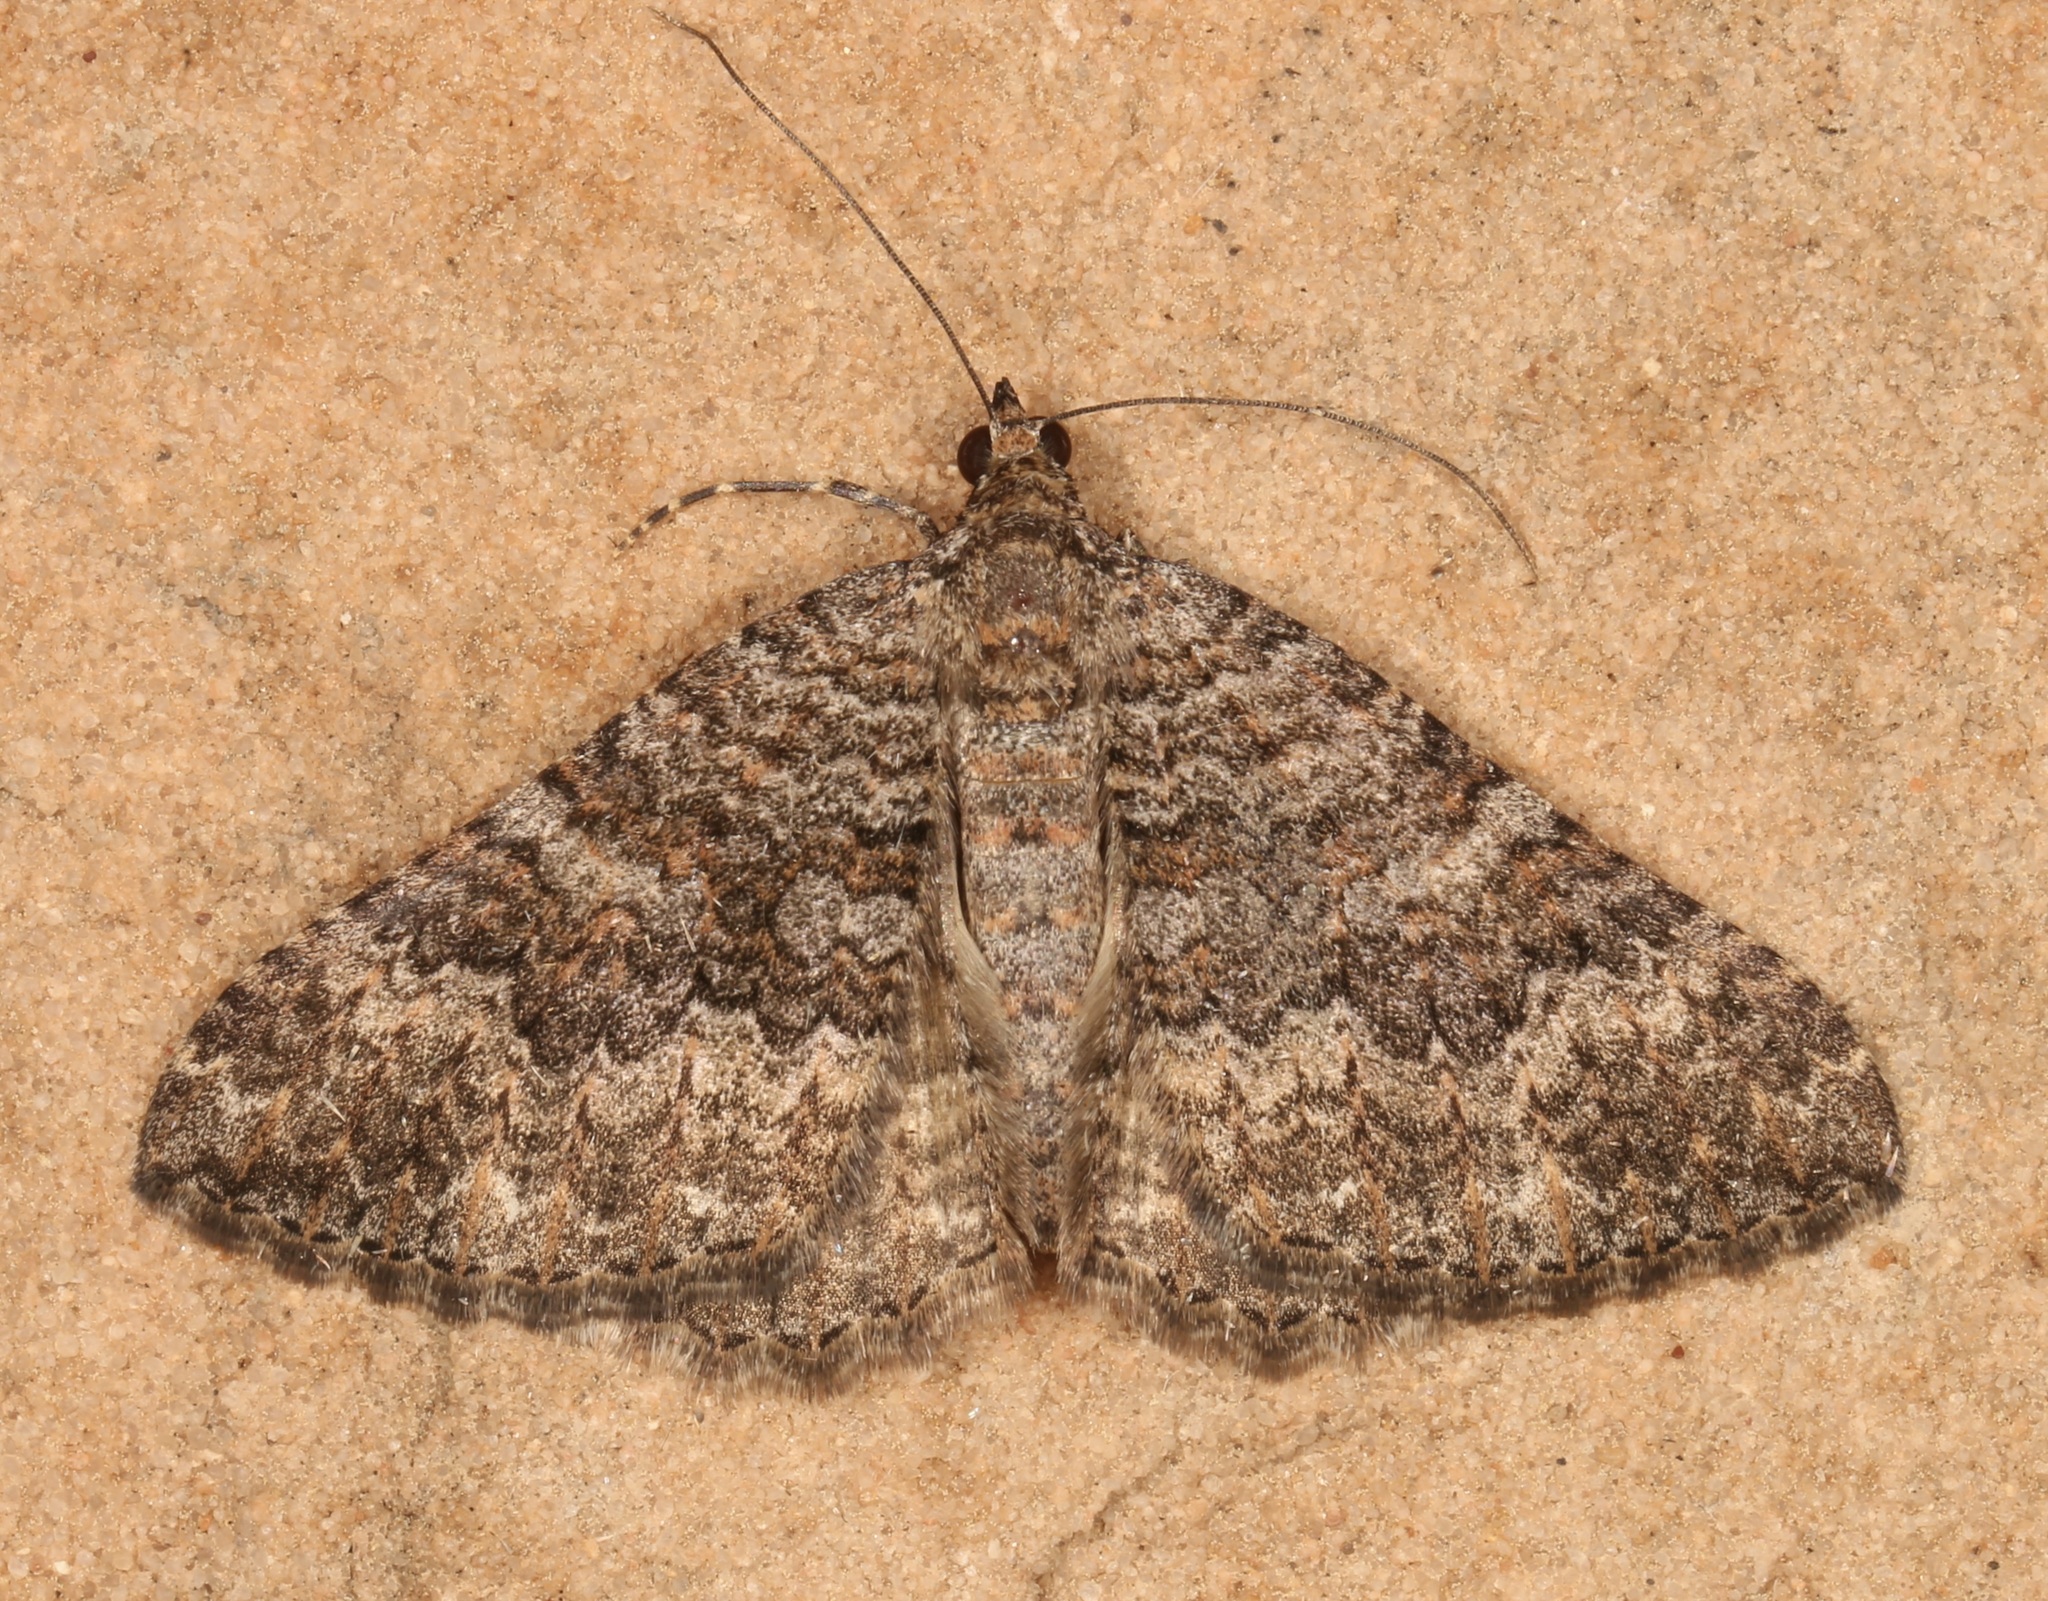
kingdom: Animalia
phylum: Arthropoda
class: Insecta
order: Lepidoptera
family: Geometridae
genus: Archirhoe
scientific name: Archirhoe neomexicana
